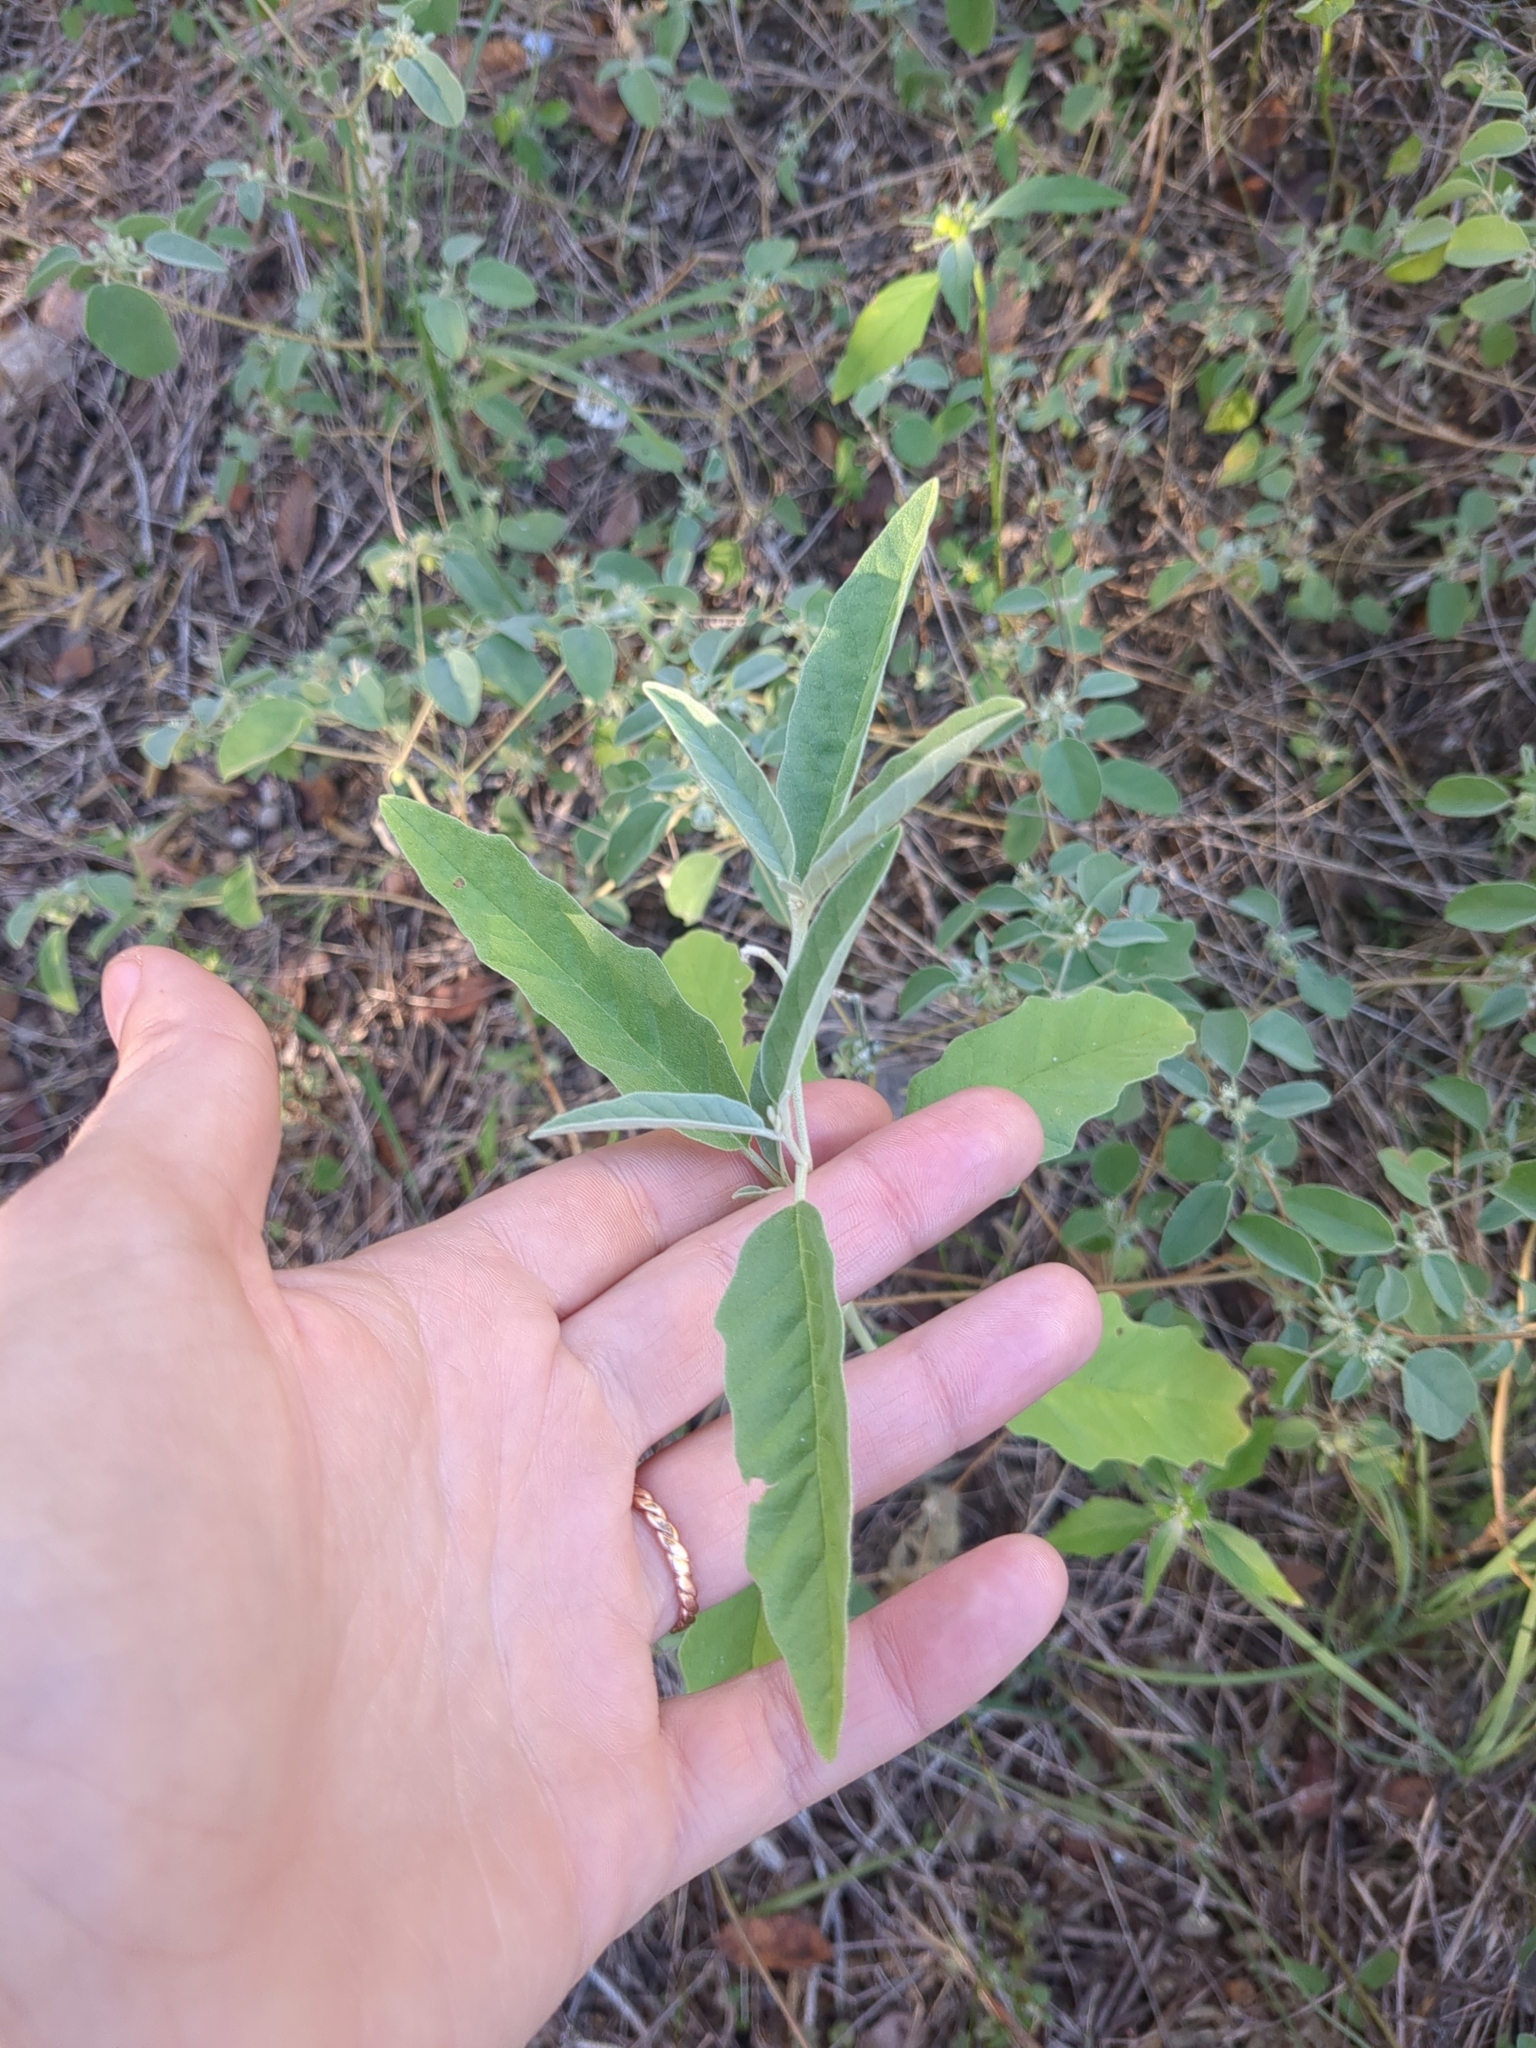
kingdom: Plantae
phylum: Tracheophyta
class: Magnoliopsida
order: Solanales
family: Solanaceae
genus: Solanum
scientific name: Solanum elaeagnifolium
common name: Silverleaf nightshade
